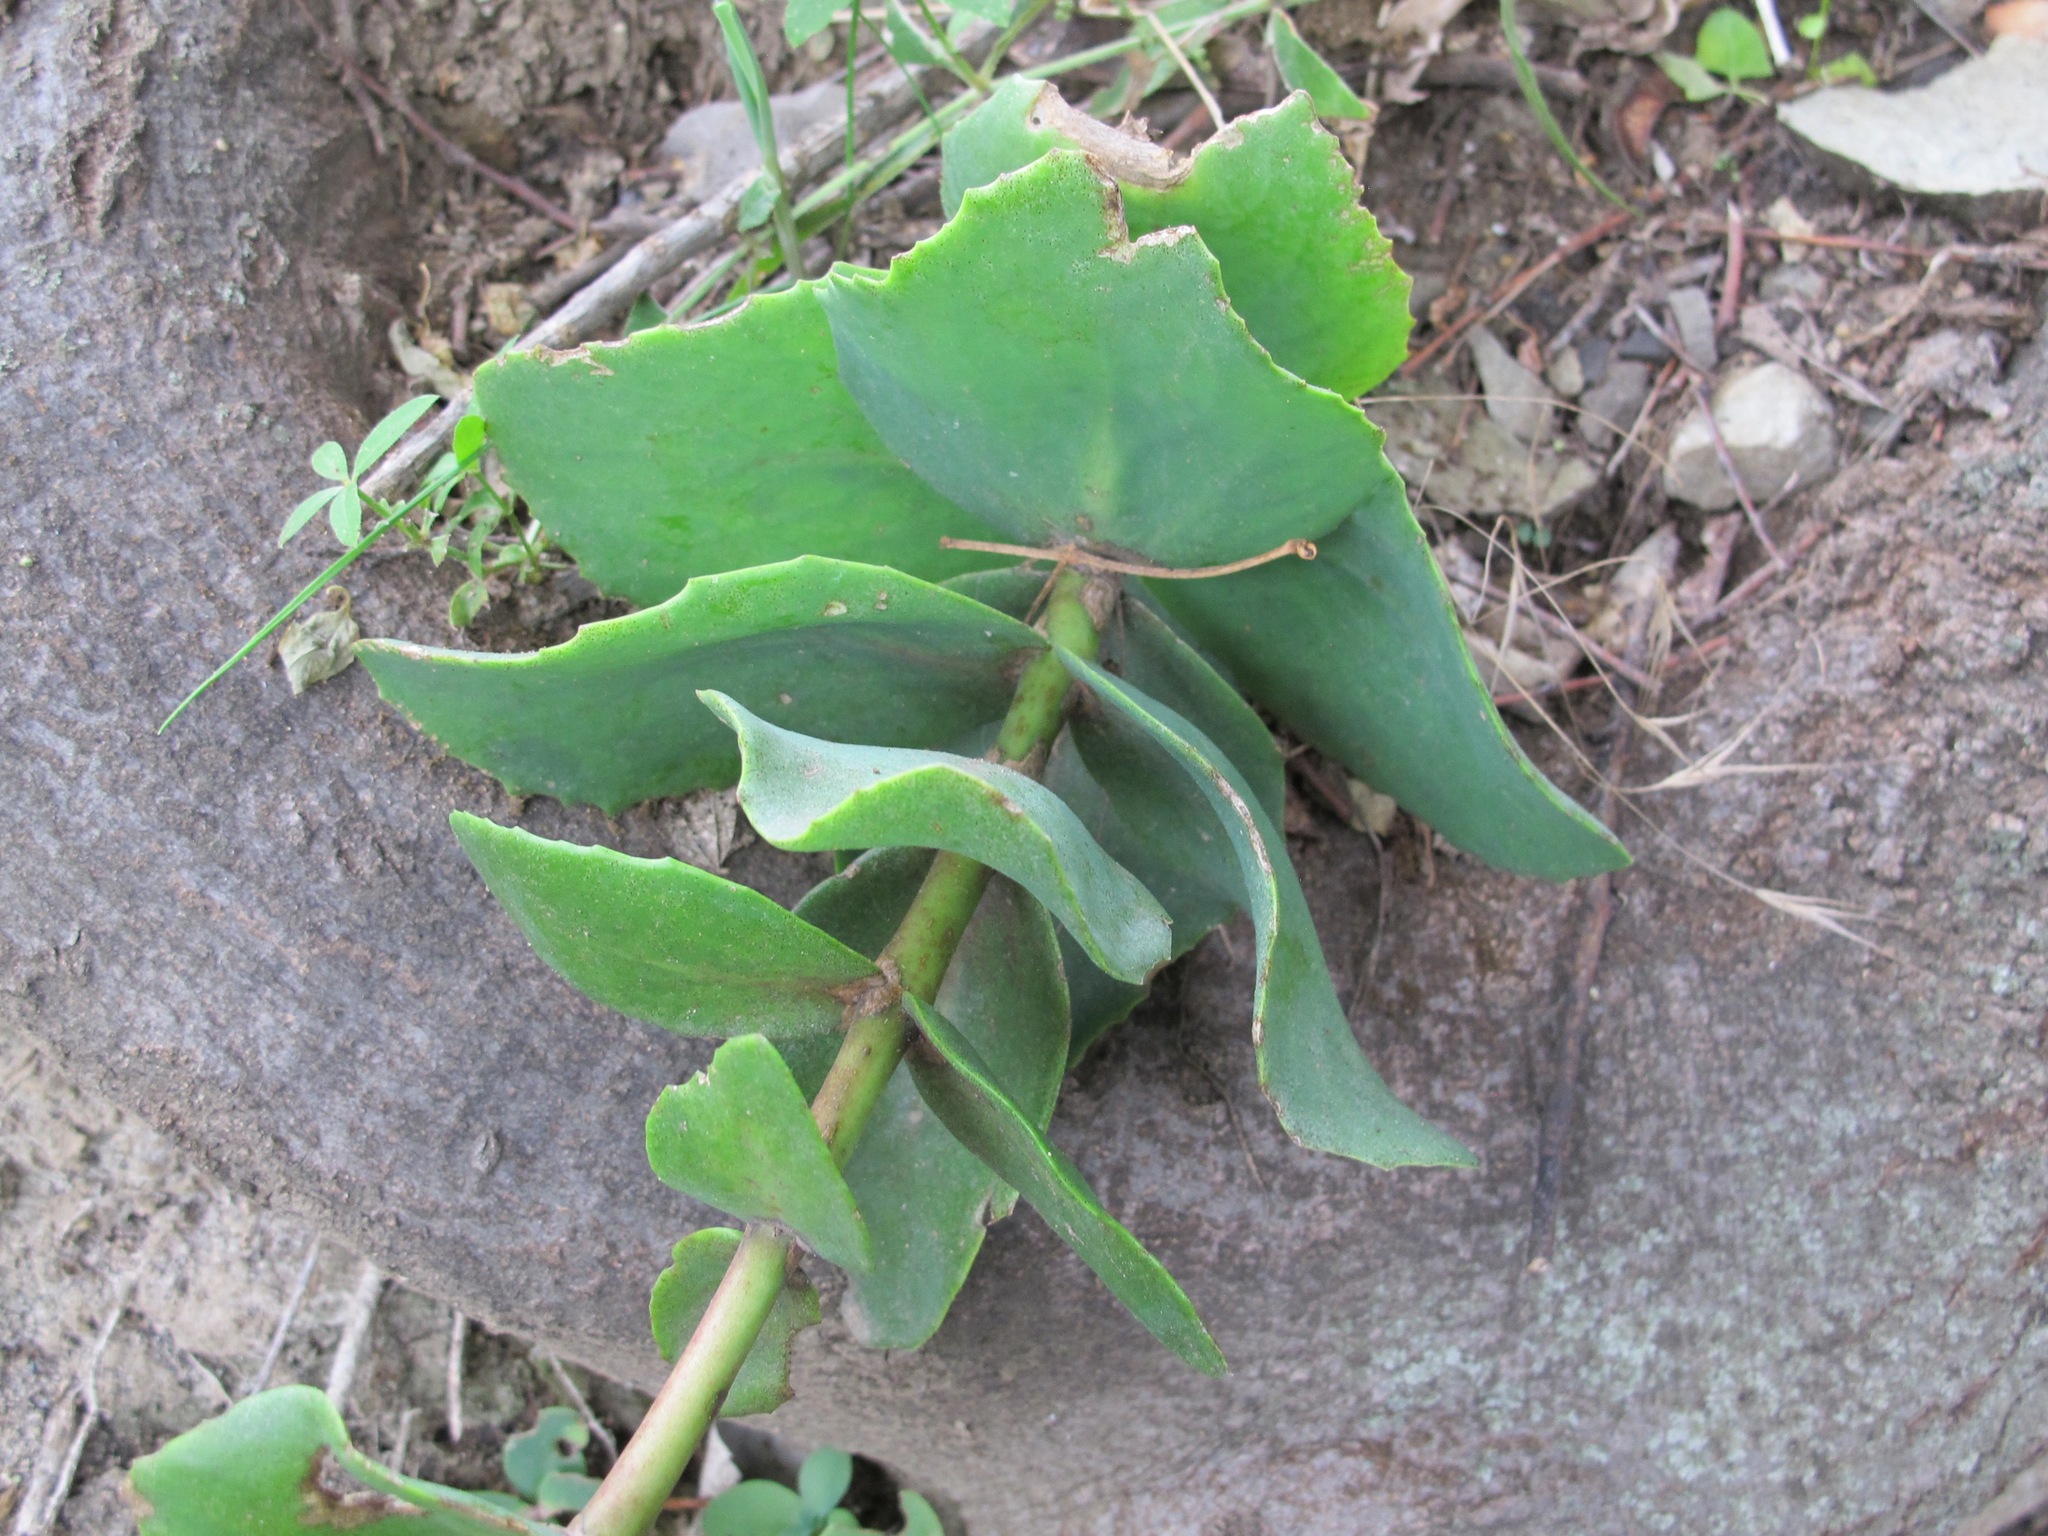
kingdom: Plantae
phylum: Tracheophyta
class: Magnoliopsida
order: Saxifragales
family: Crassulaceae
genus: Hylotelephium
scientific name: Hylotelephium maximum
